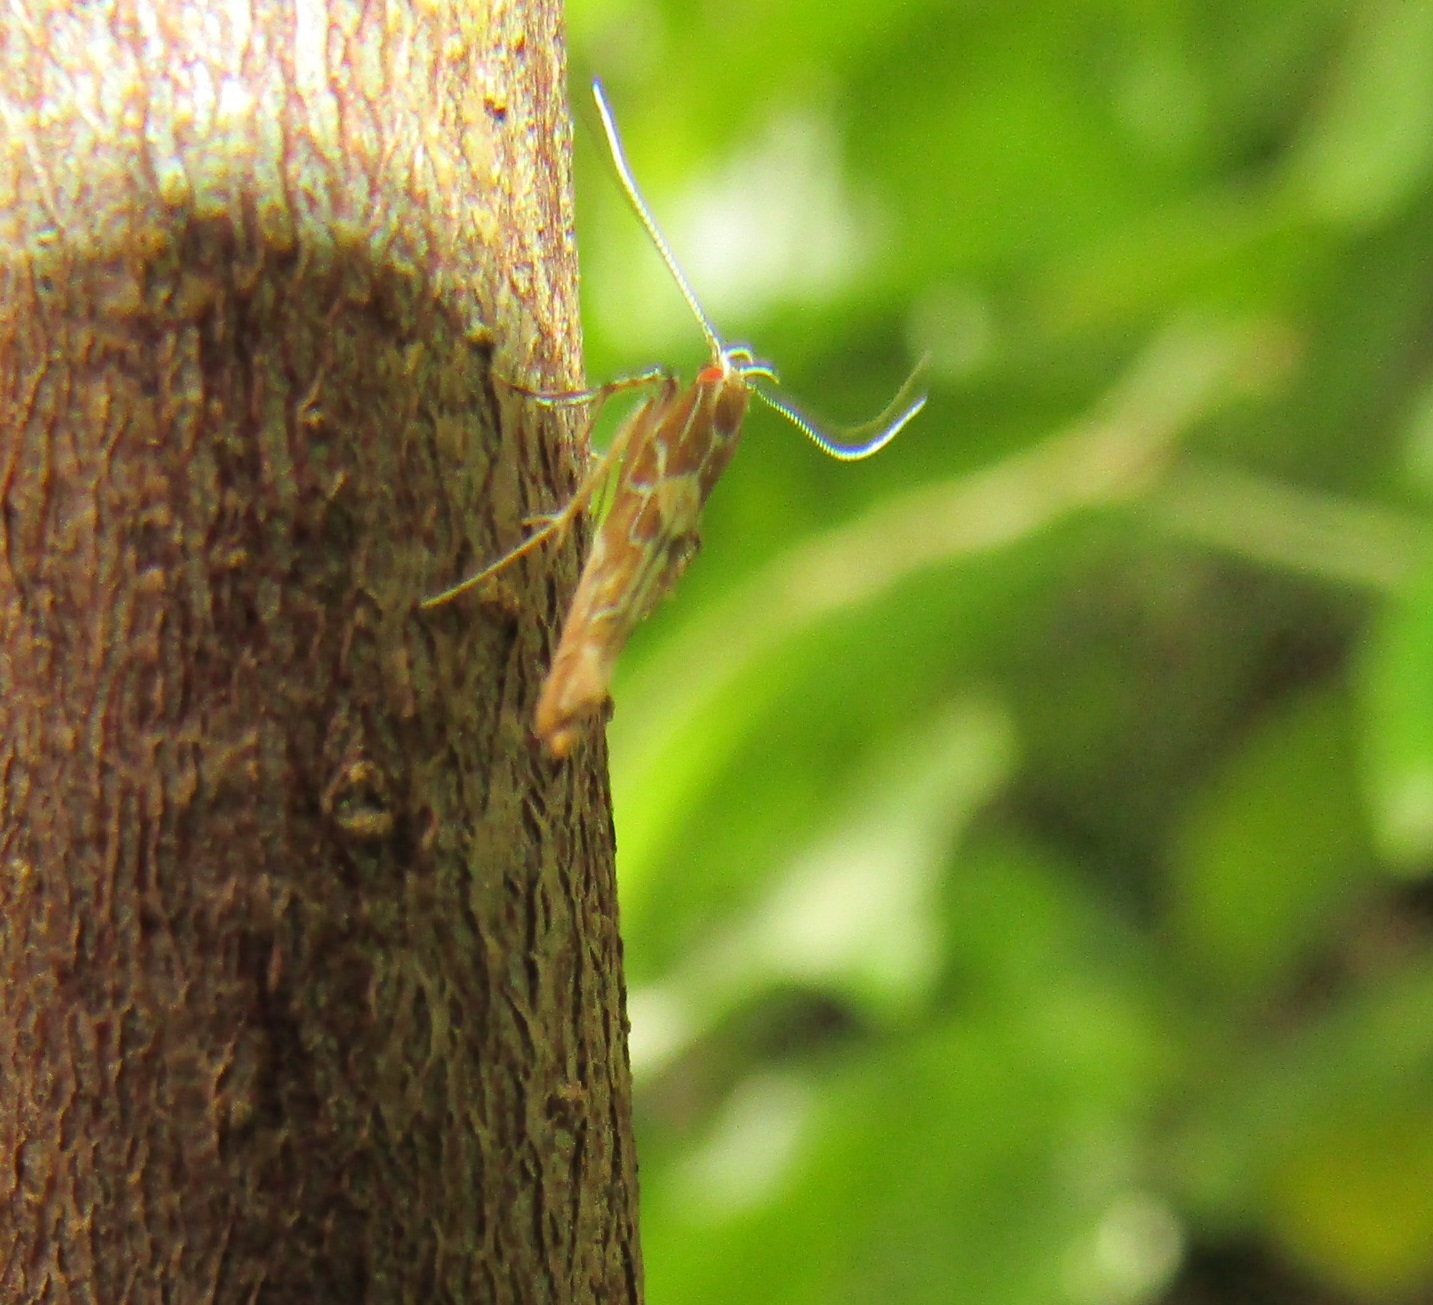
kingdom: Animalia
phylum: Arthropoda
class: Insecta
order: Lepidoptera
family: Cosmopterigidae
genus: Pyroderces
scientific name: Pyroderces apparitella
